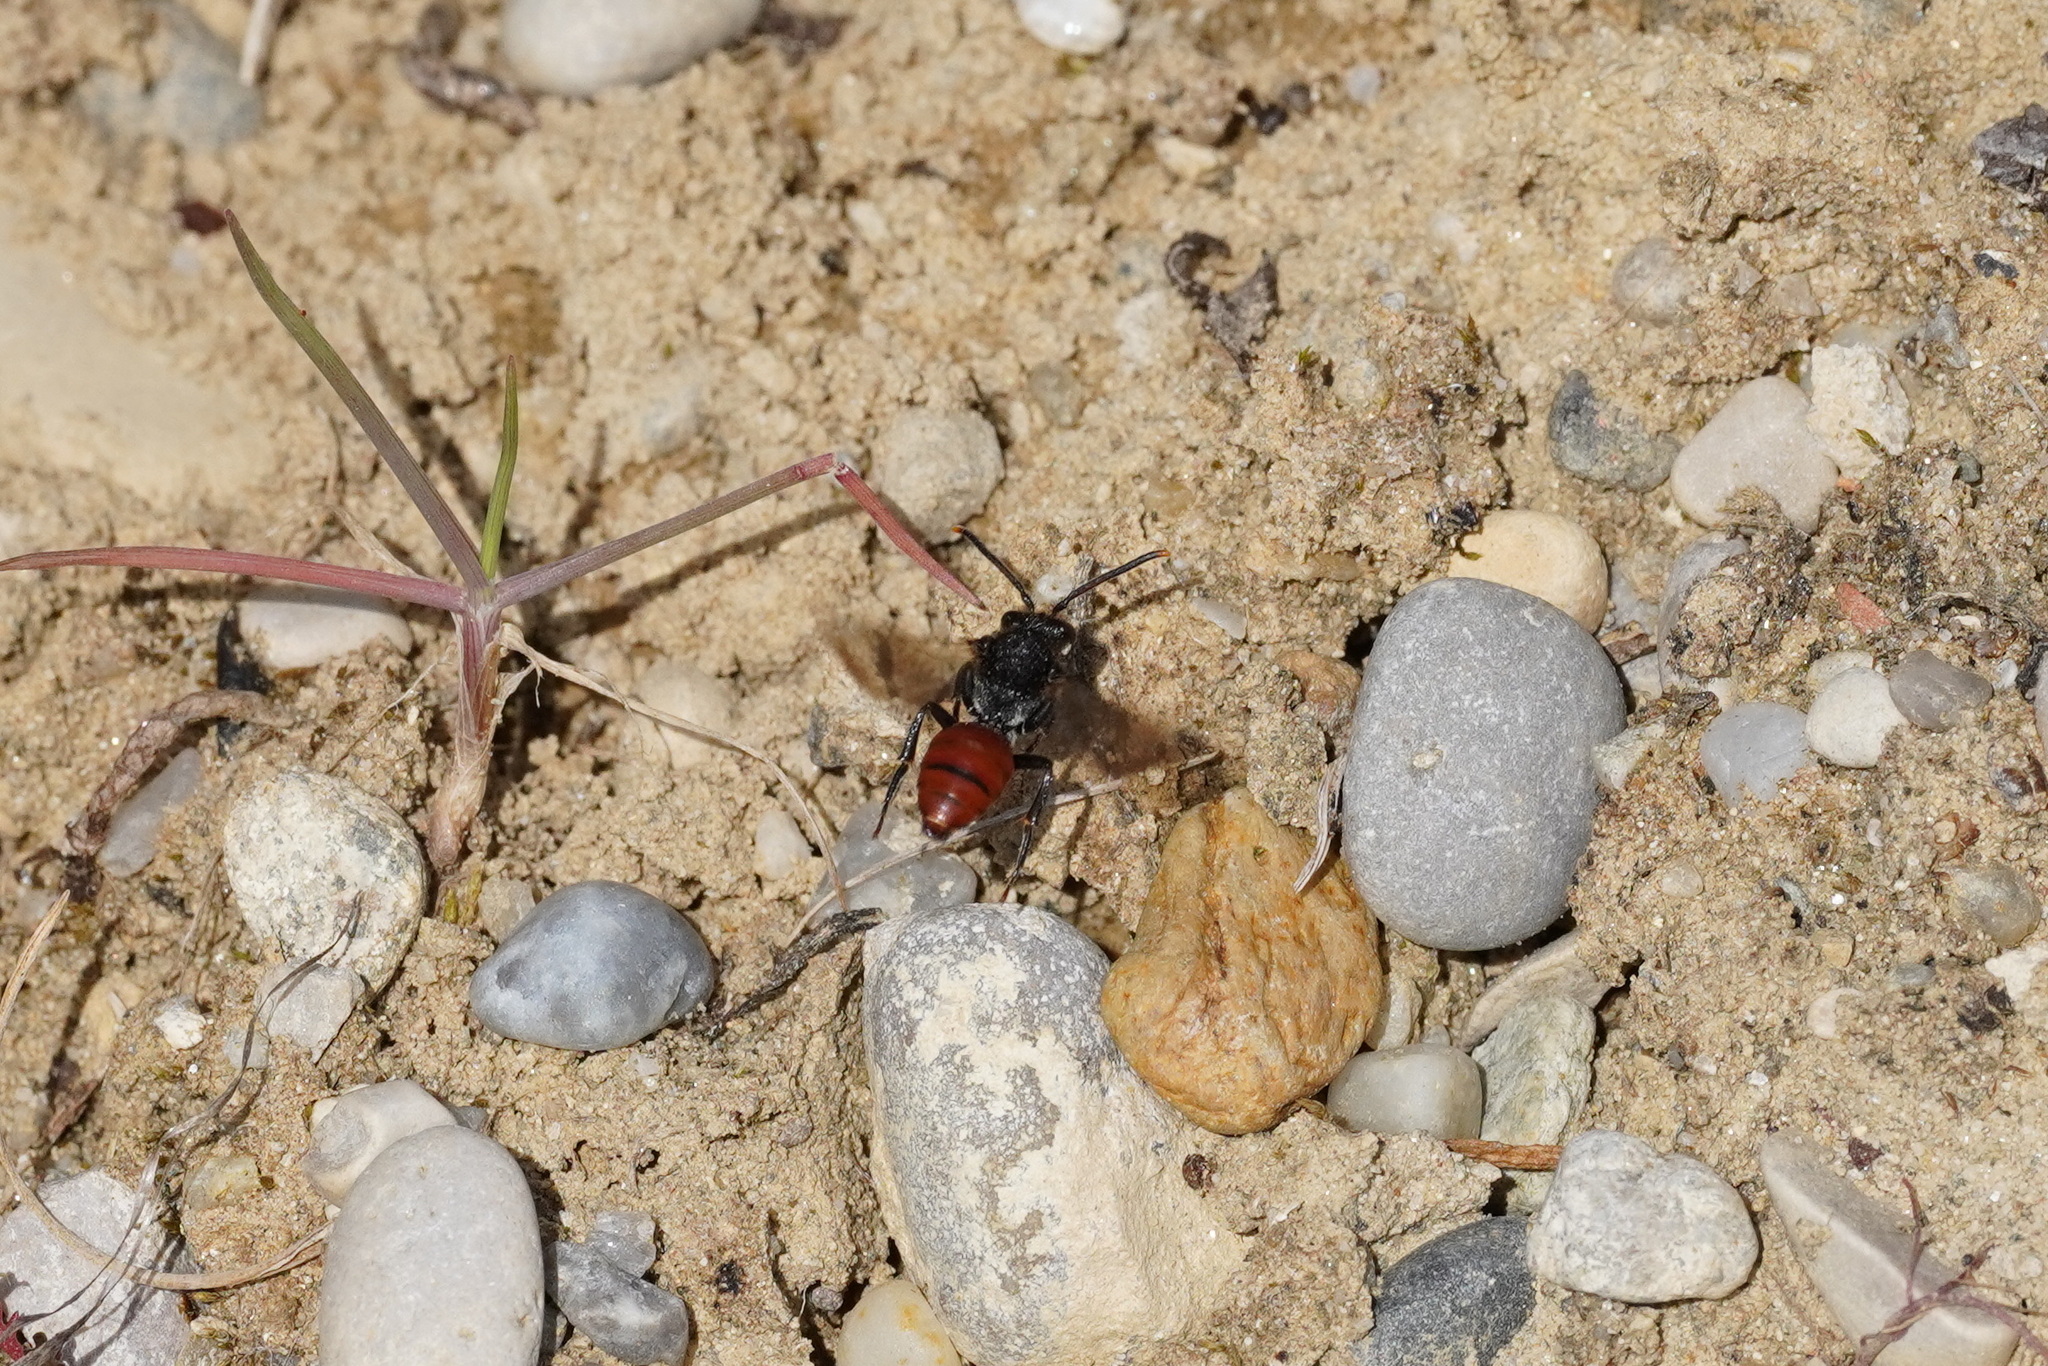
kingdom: Animalia
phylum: Arthropoda
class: Insecta
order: Hymenoptera
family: Apidae
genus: Nomada
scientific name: Nomada fabriciana
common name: Fabricius' nomad bee
